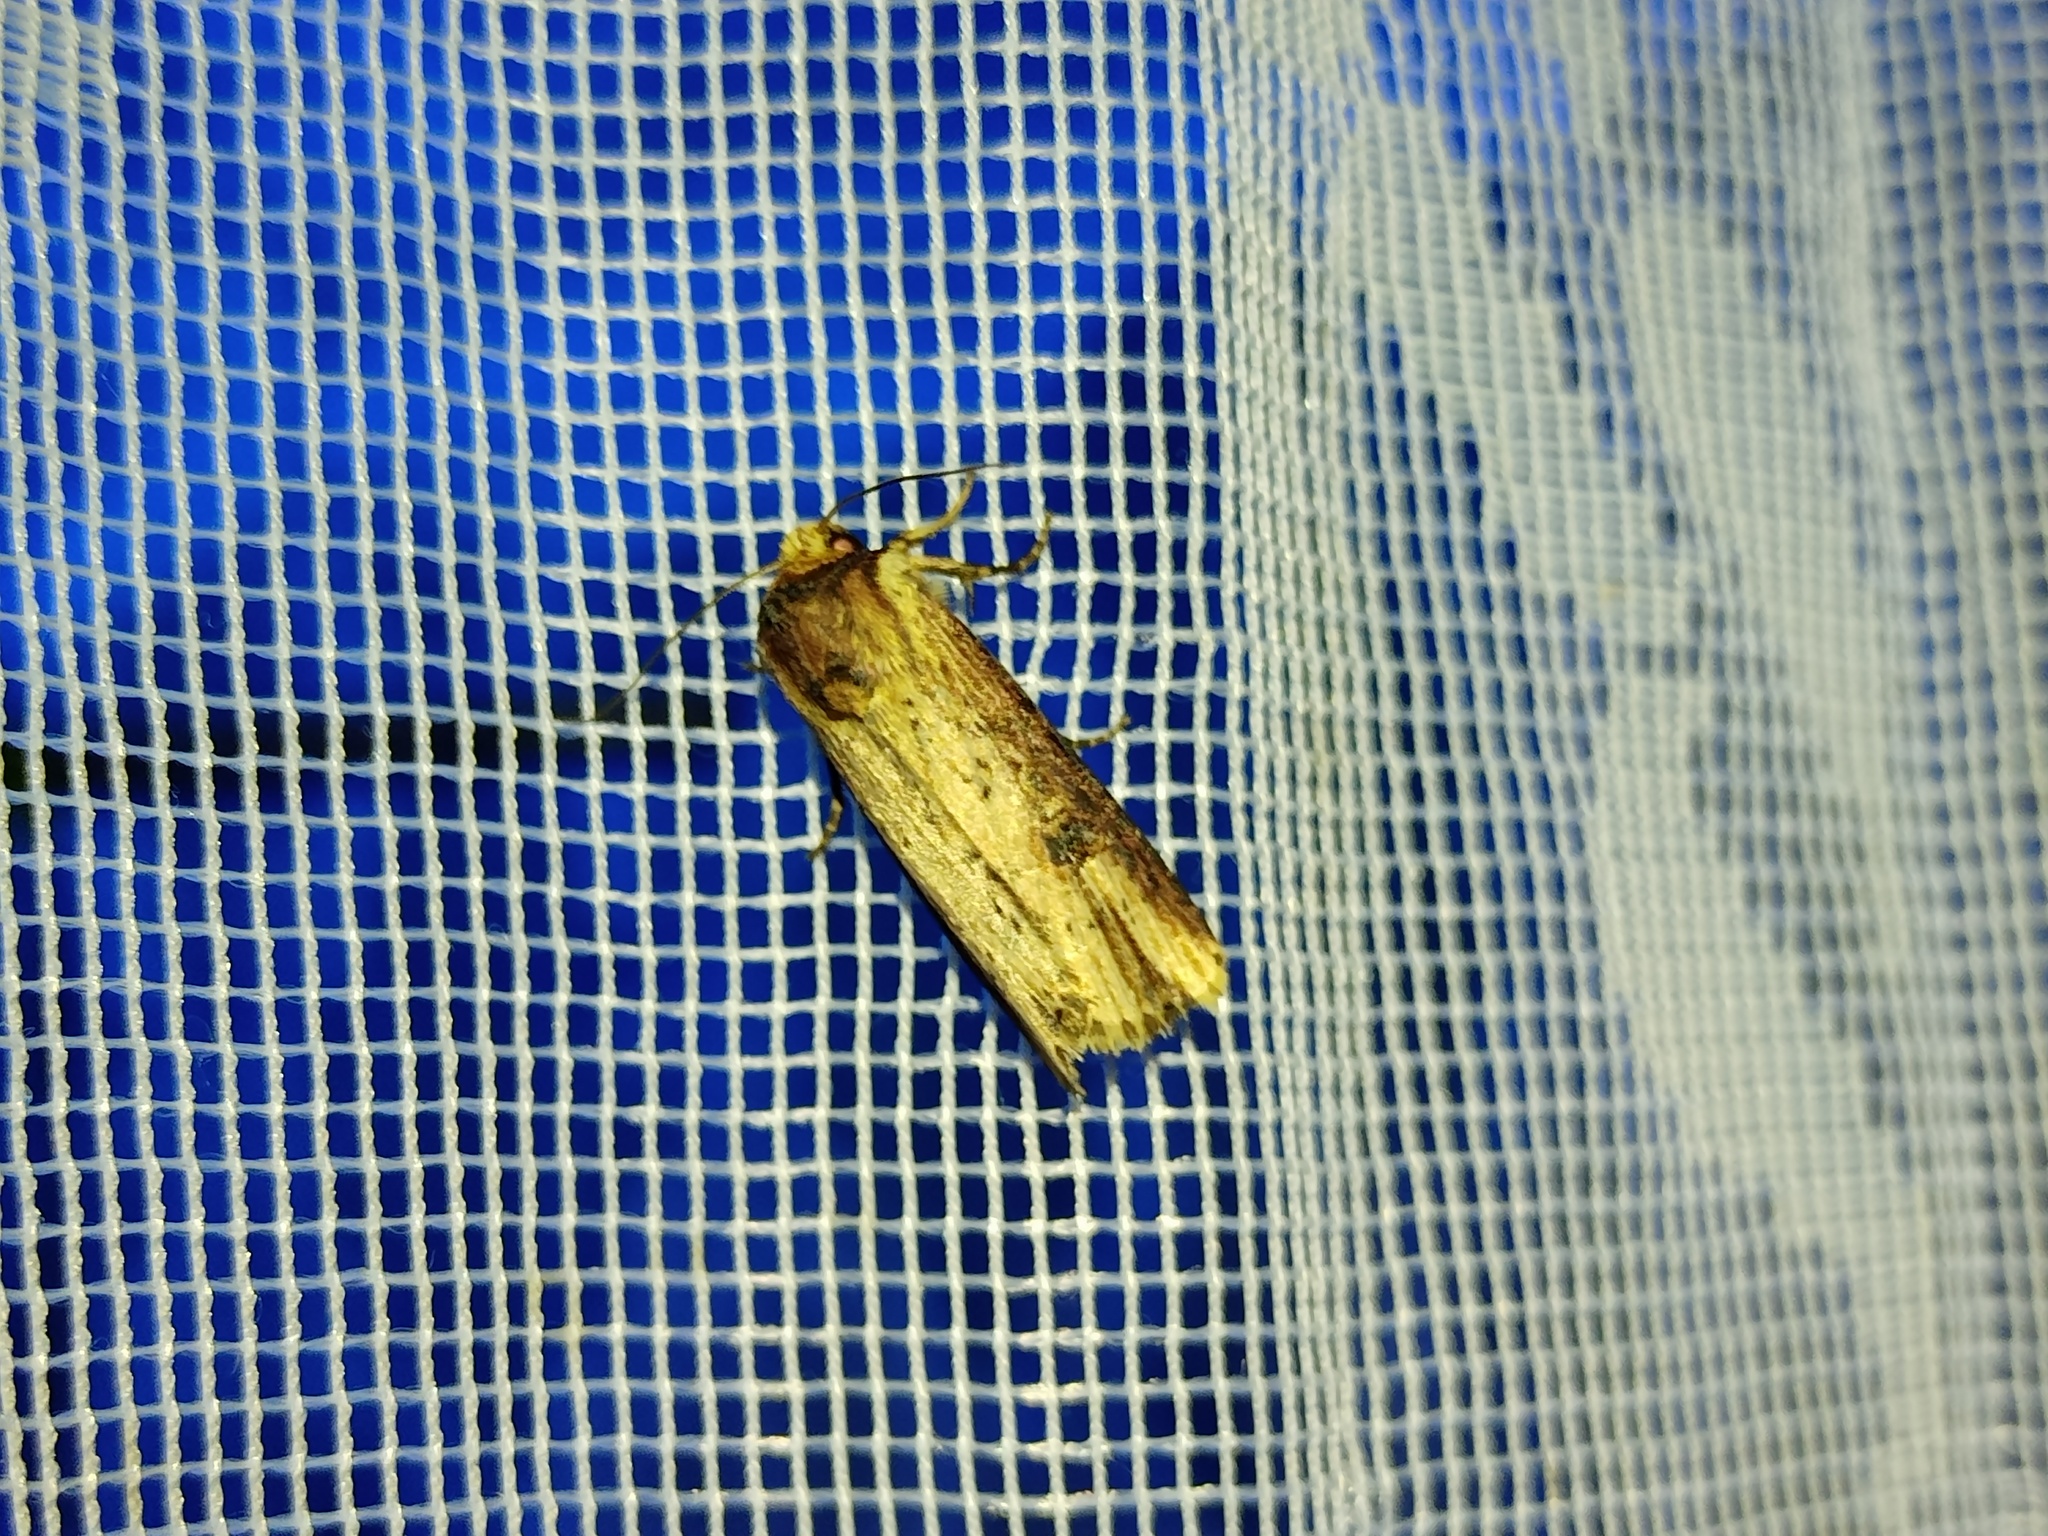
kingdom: Animalia
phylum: Arthropoda
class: Insecta
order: Lepidoptera
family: Noctuidae
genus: Axylia
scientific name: Axylia putris
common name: Flame
